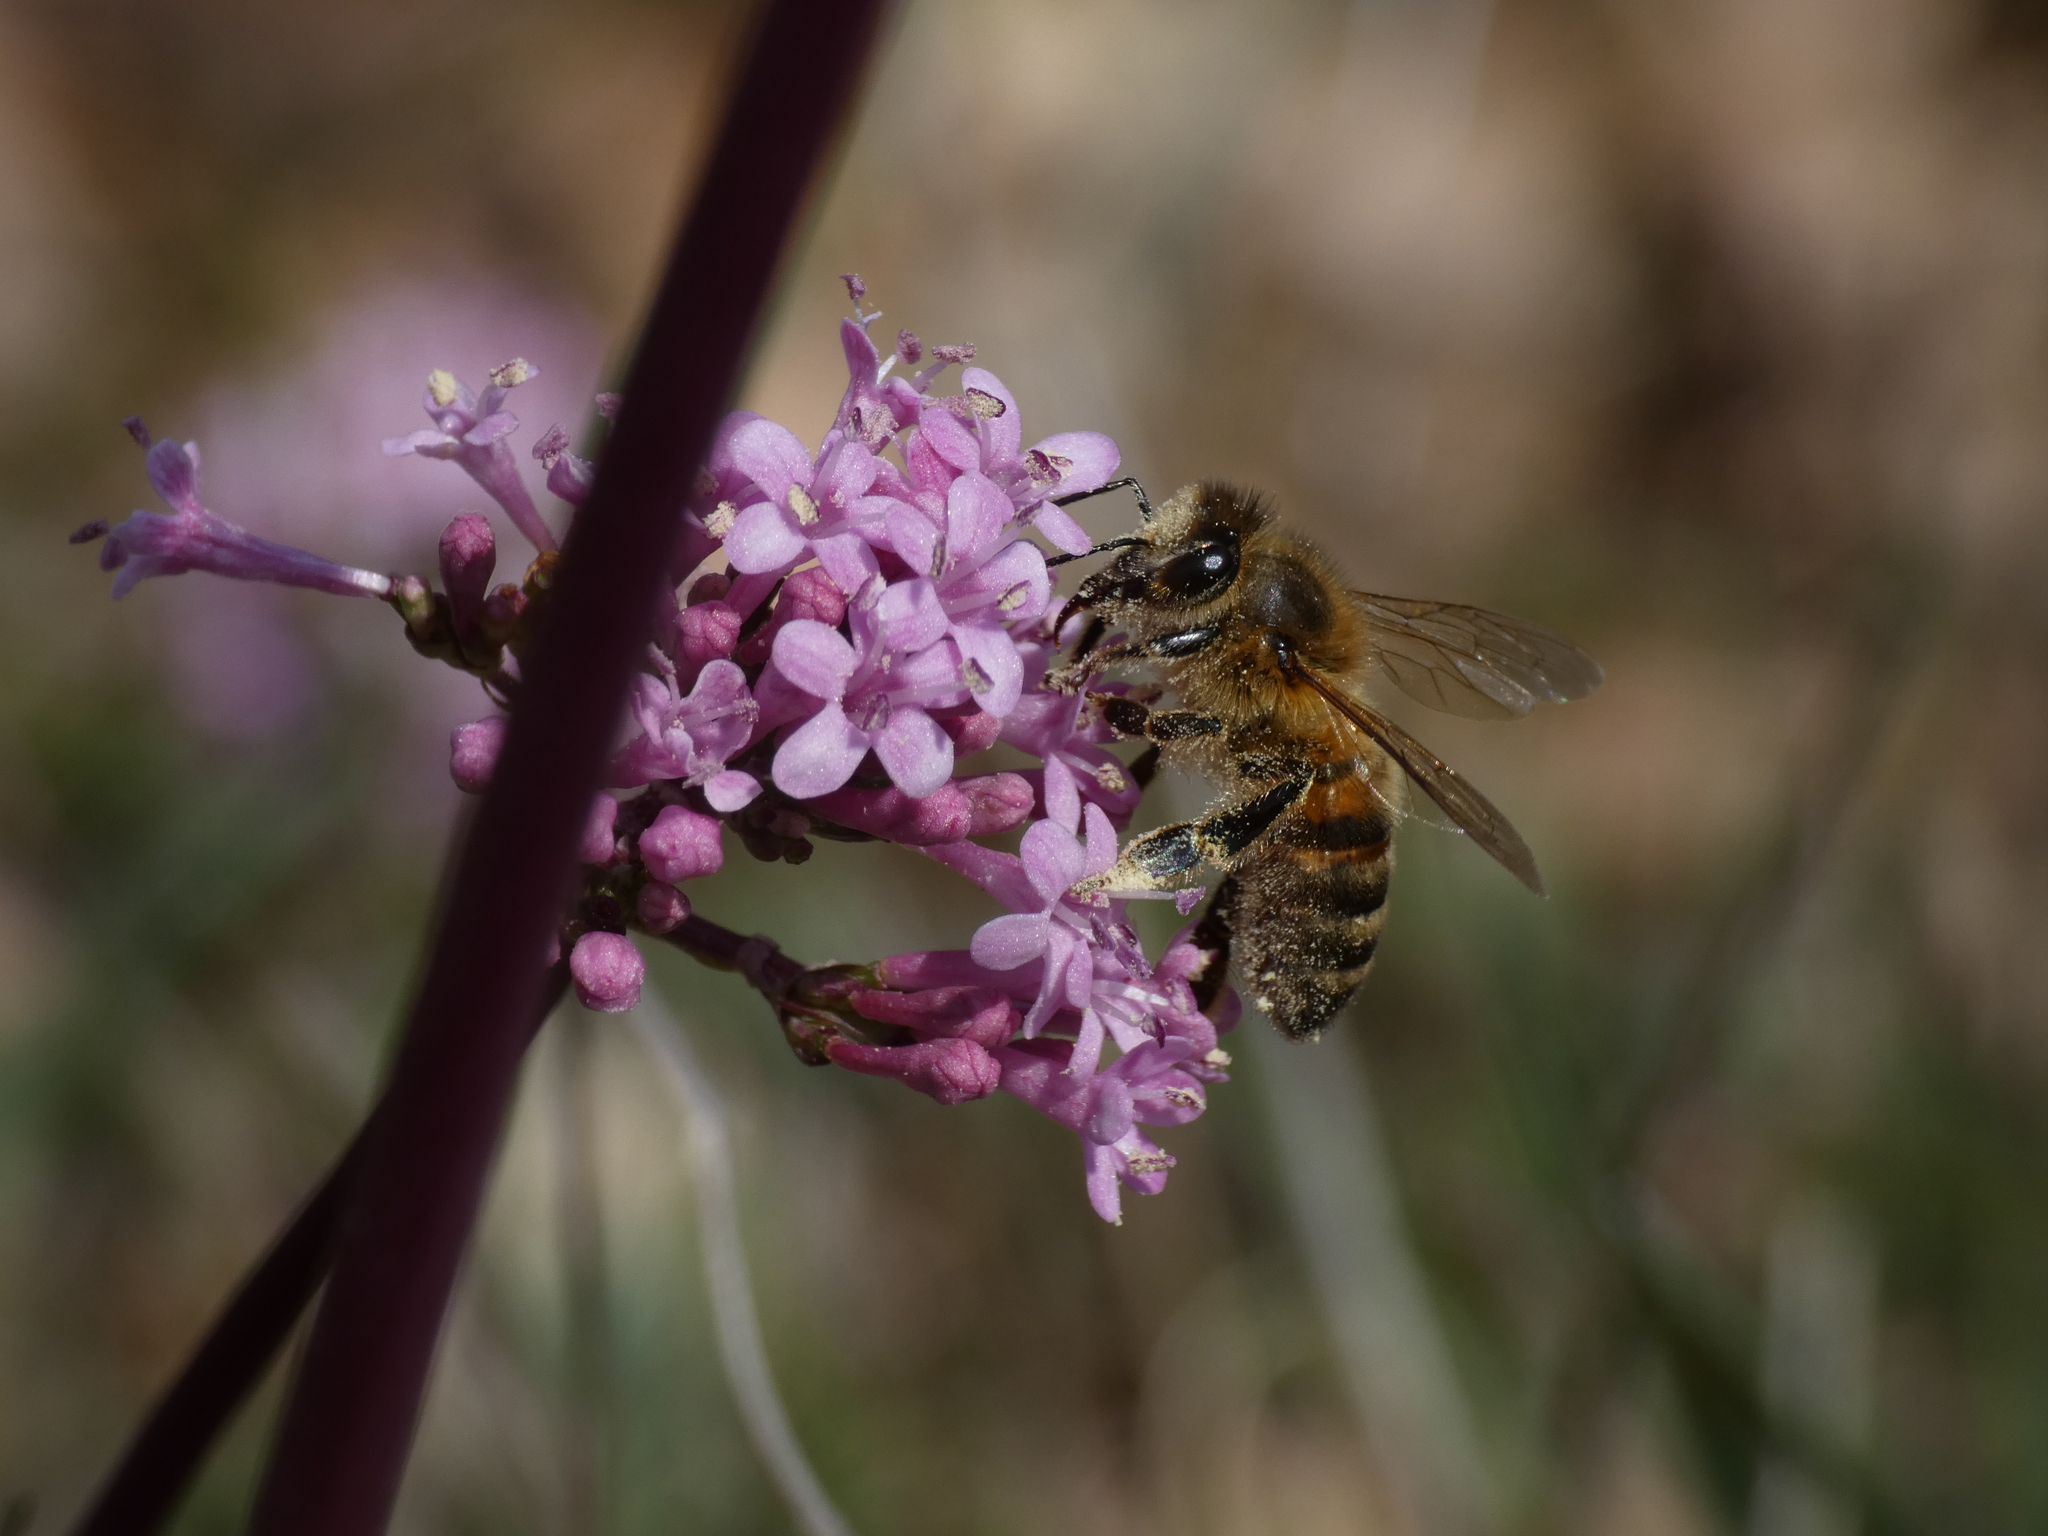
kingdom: Animalia
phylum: Arthropoda
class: Insecta
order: Hymenoptera
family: Apidae
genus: Apis
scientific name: Apis mellifera
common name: Honey bee
